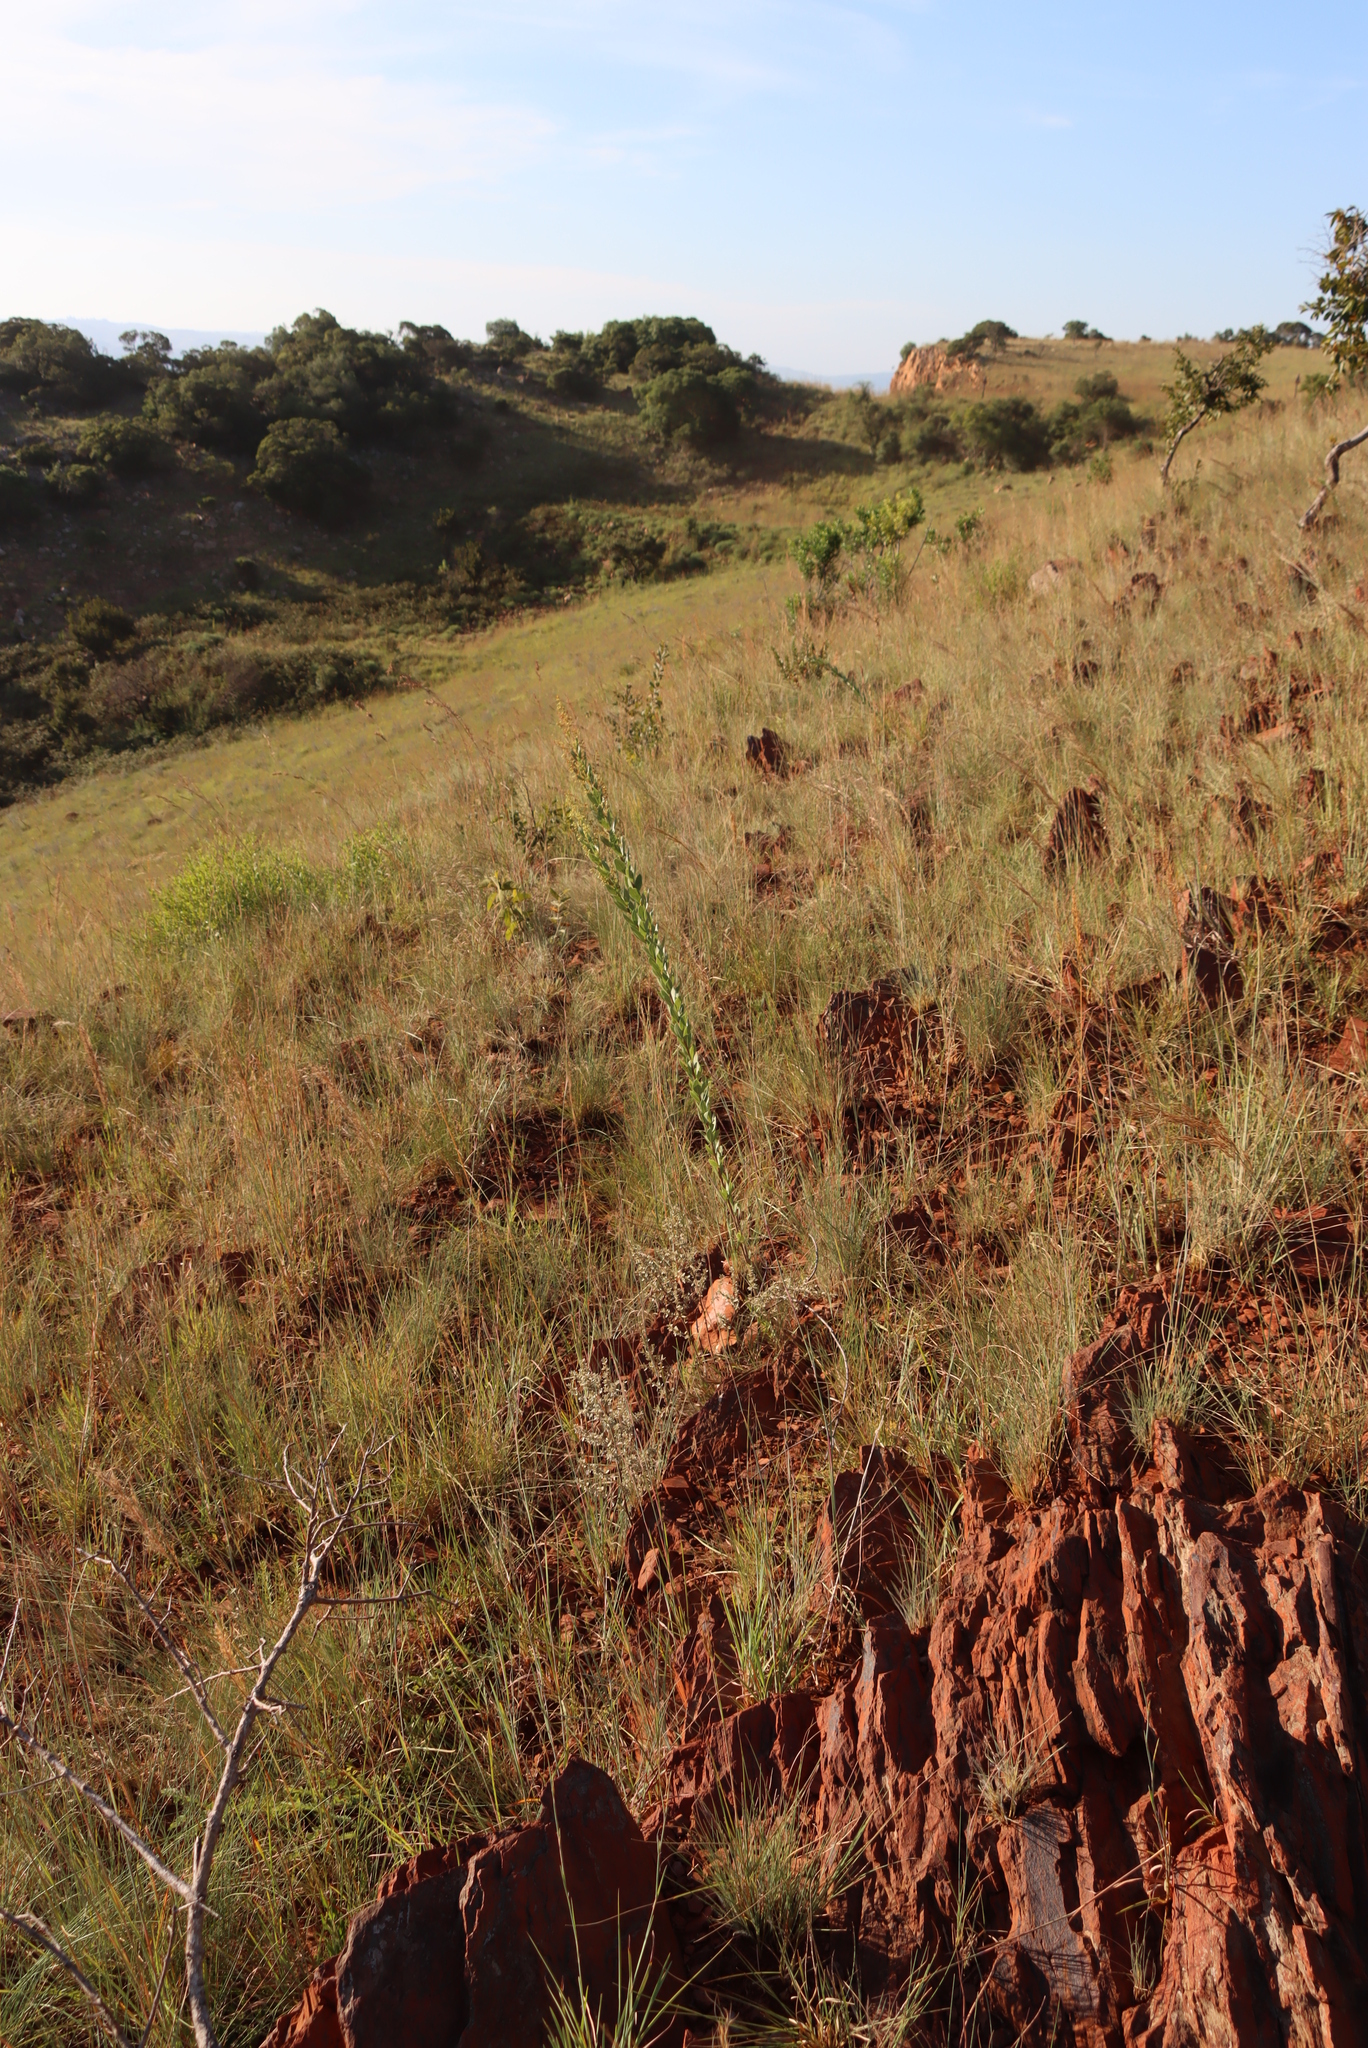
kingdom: Plantae
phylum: Tracheophyta
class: Magnoliopsida
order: Sapindales
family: Anacardiaceae
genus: Searsia
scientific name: Searsia pondoensis
